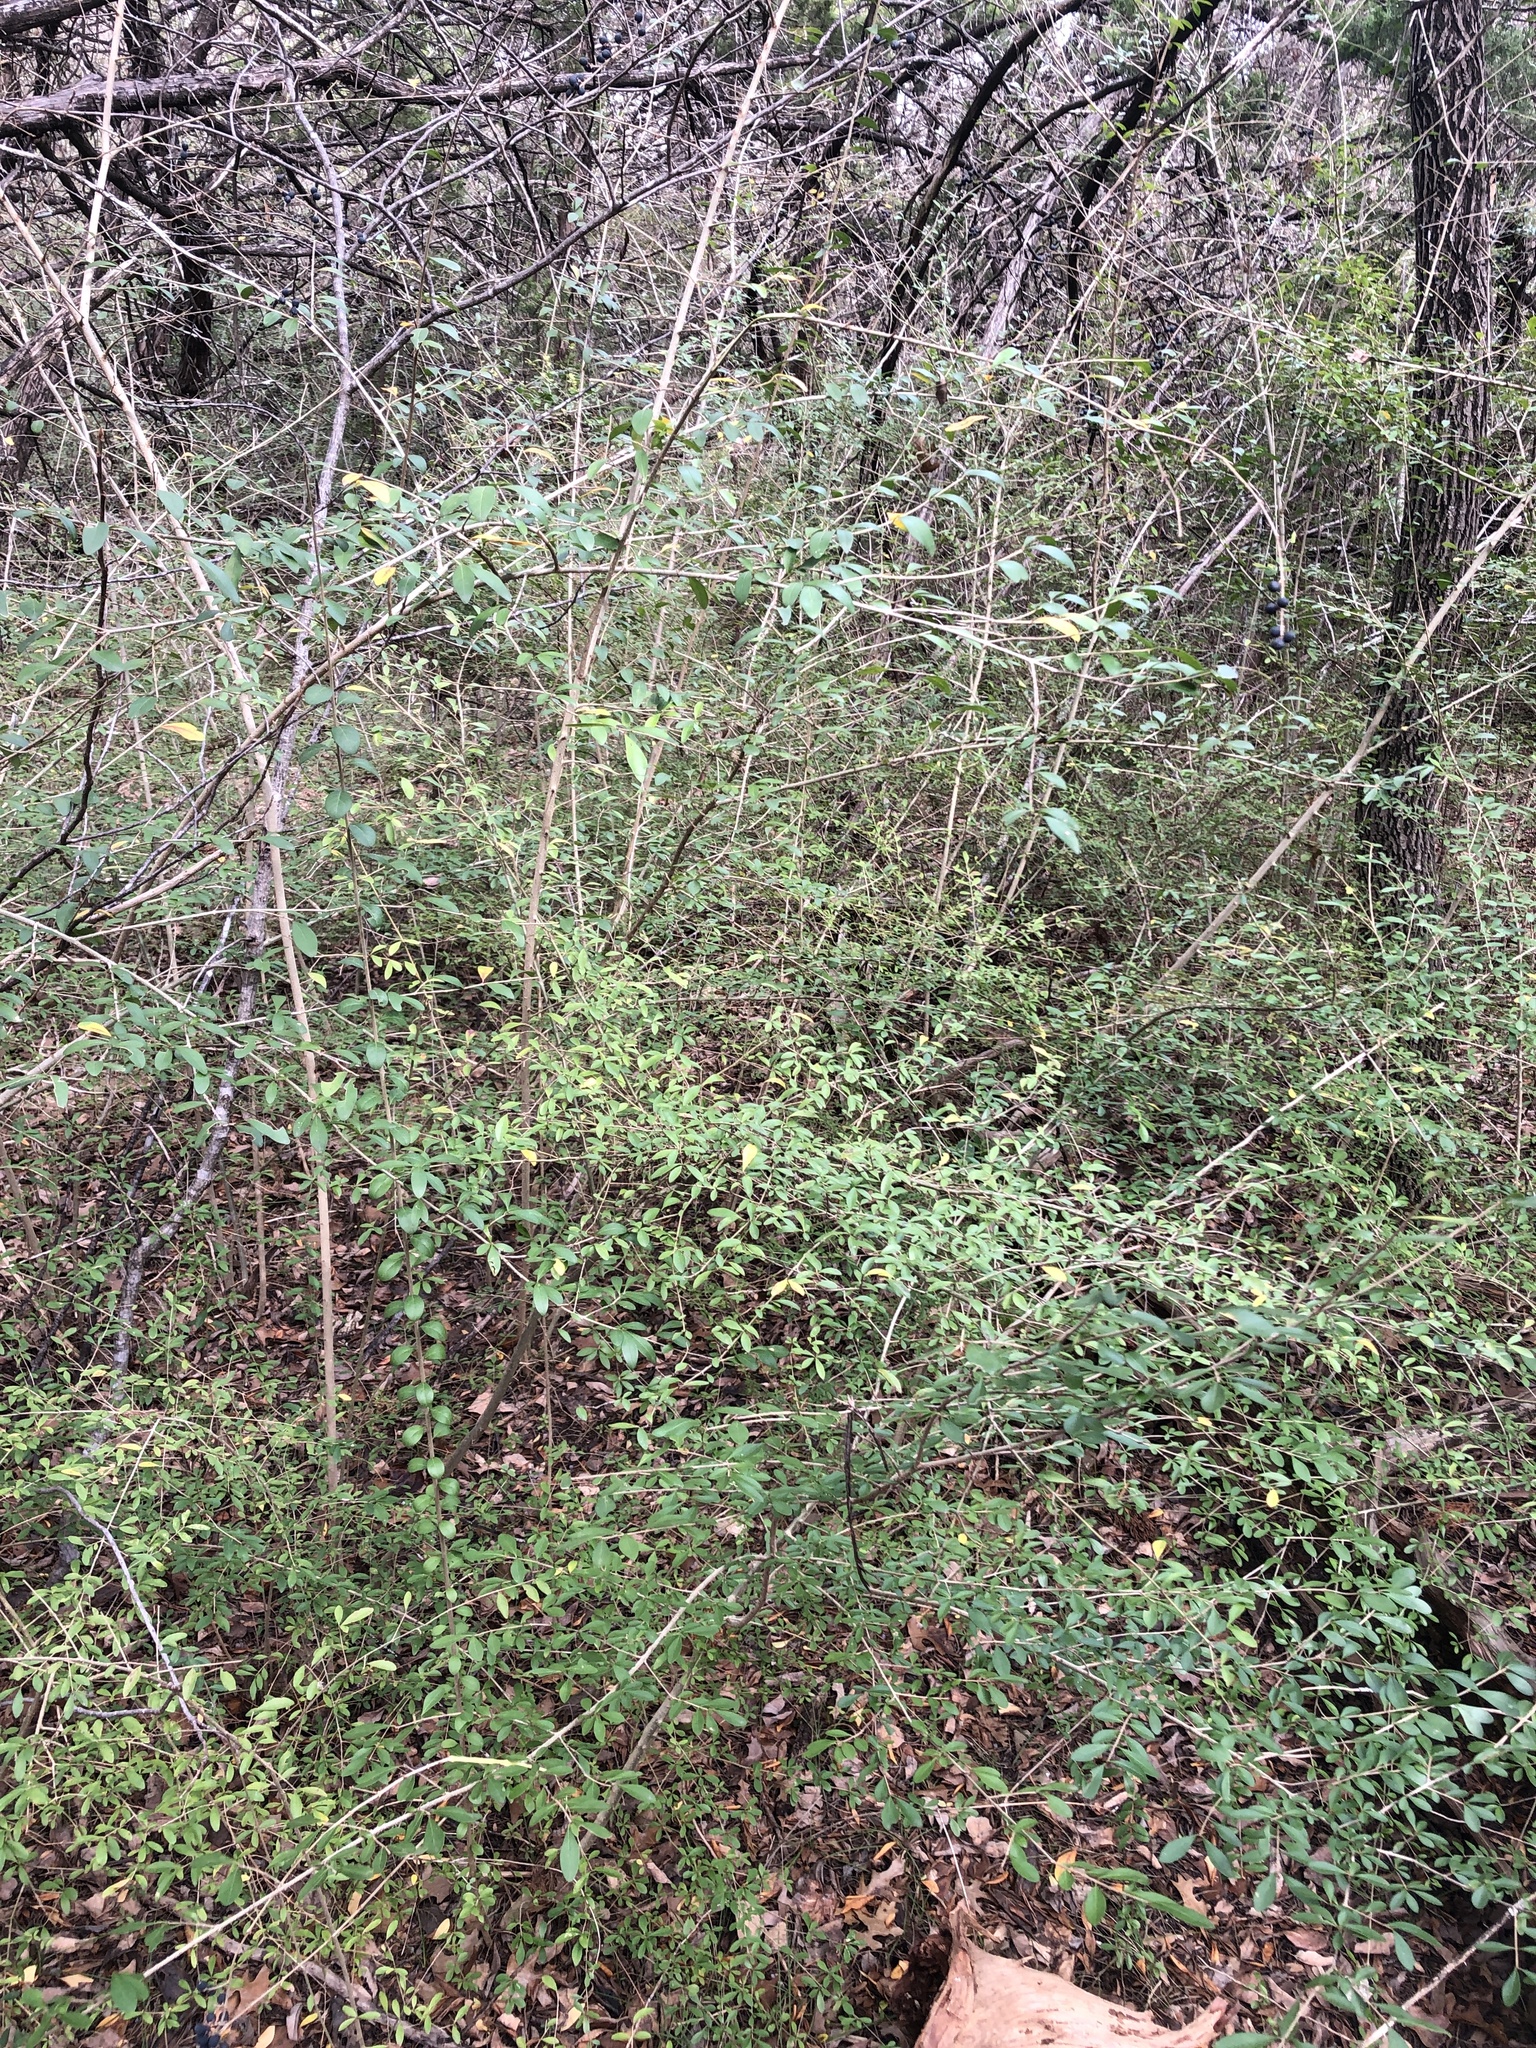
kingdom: Plantae
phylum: Tracheophyta
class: Magnoliopsida
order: Lamiales
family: Oleaceae
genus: Ligustrum
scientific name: Ligustrum quihoui
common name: Waxyleaf privet
